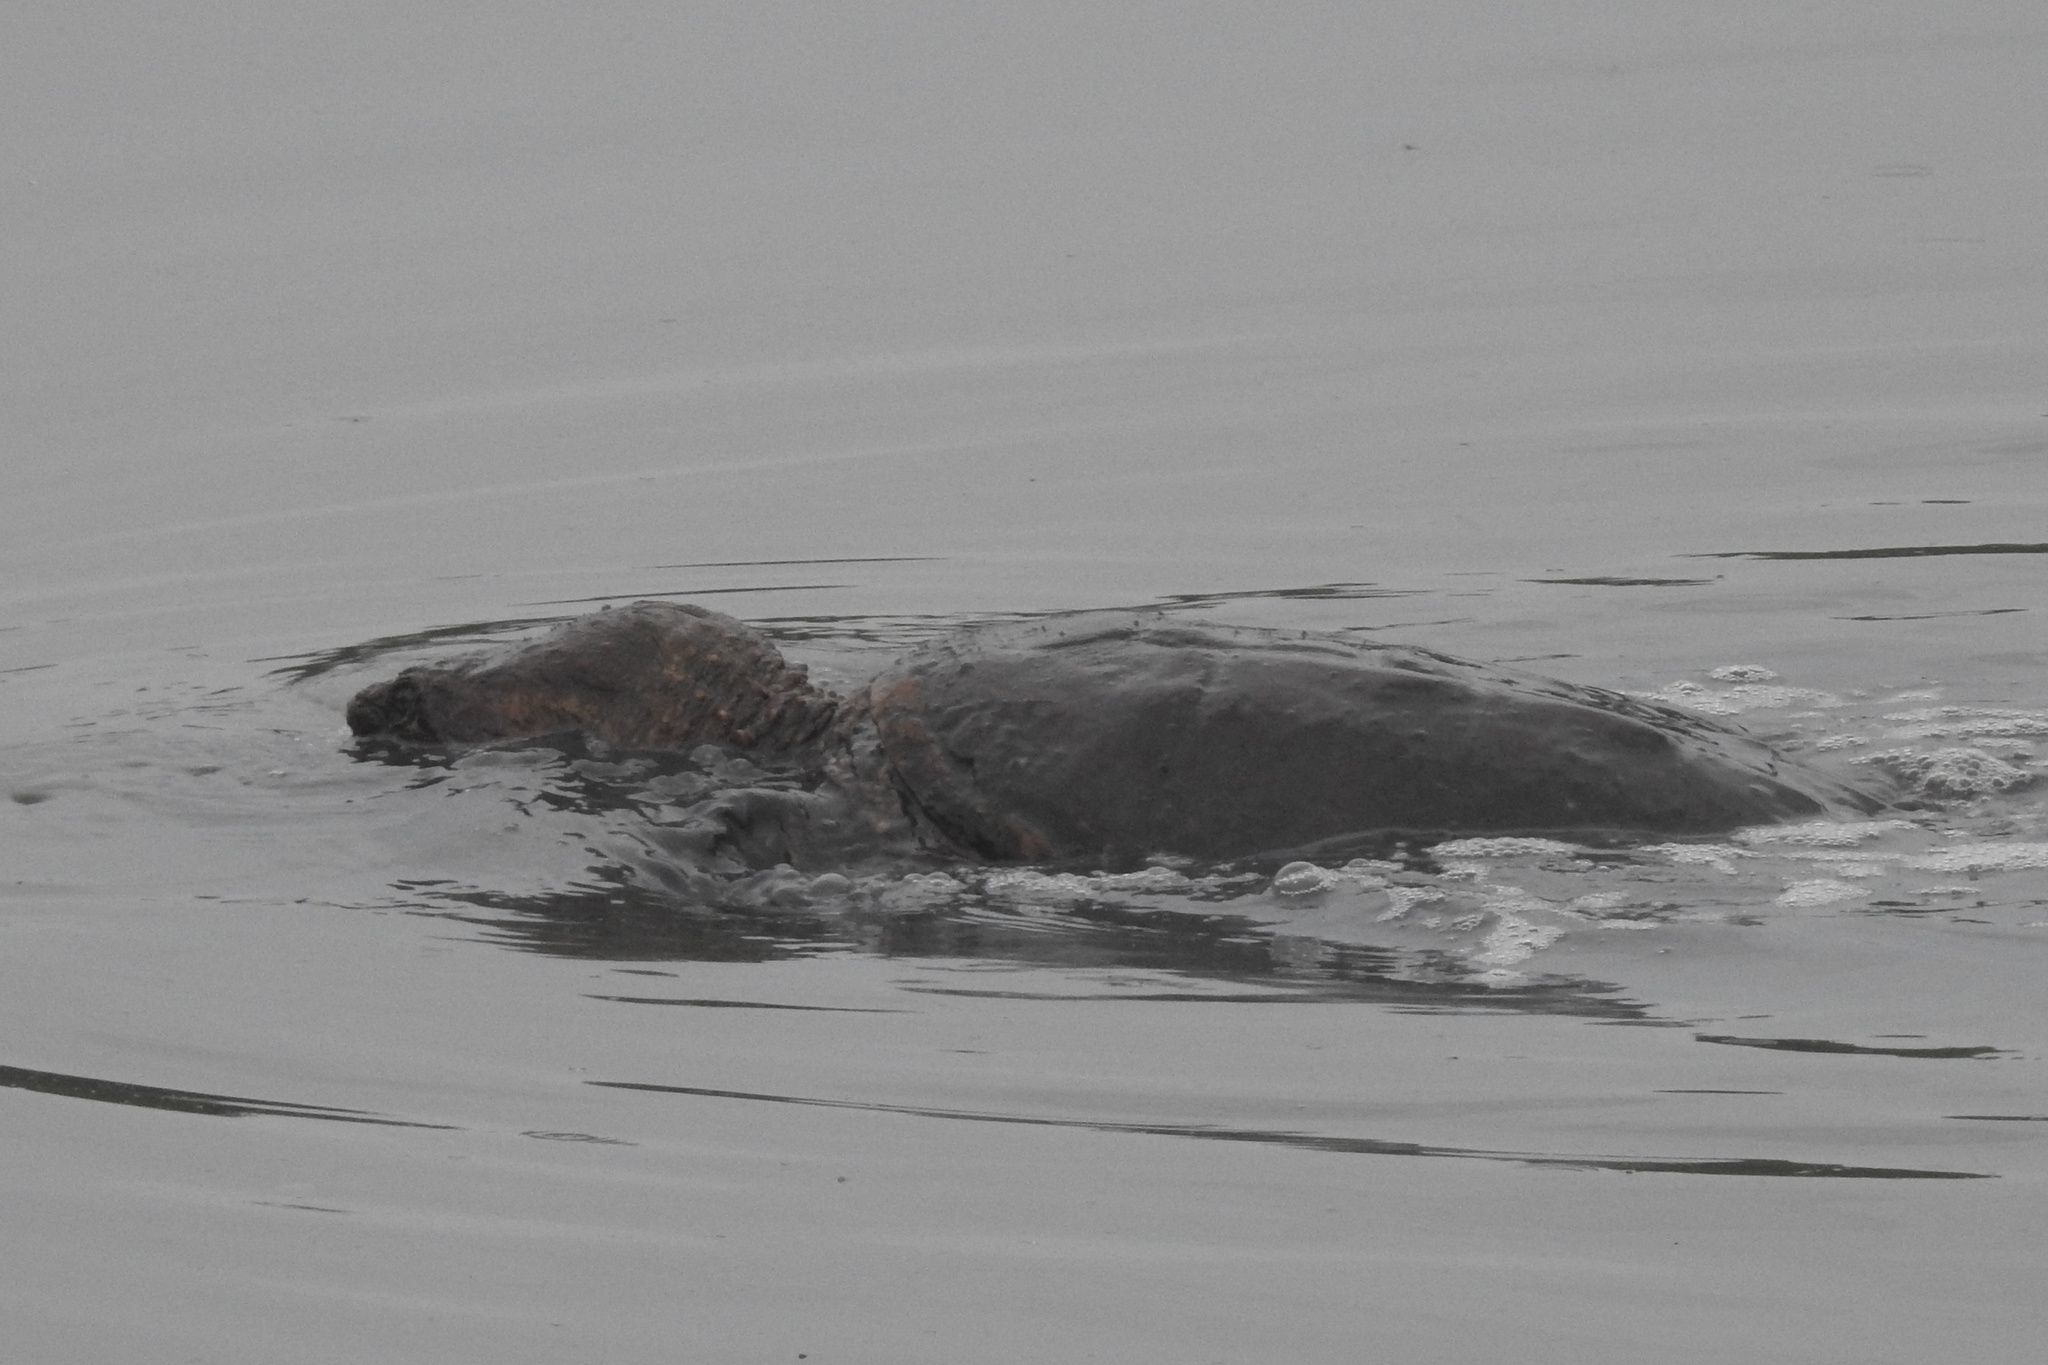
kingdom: Animalia
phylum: Chordata
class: Testudines
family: Chelydridae
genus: Chelydra
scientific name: Chelydra serpentina
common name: Common snapping turtle
